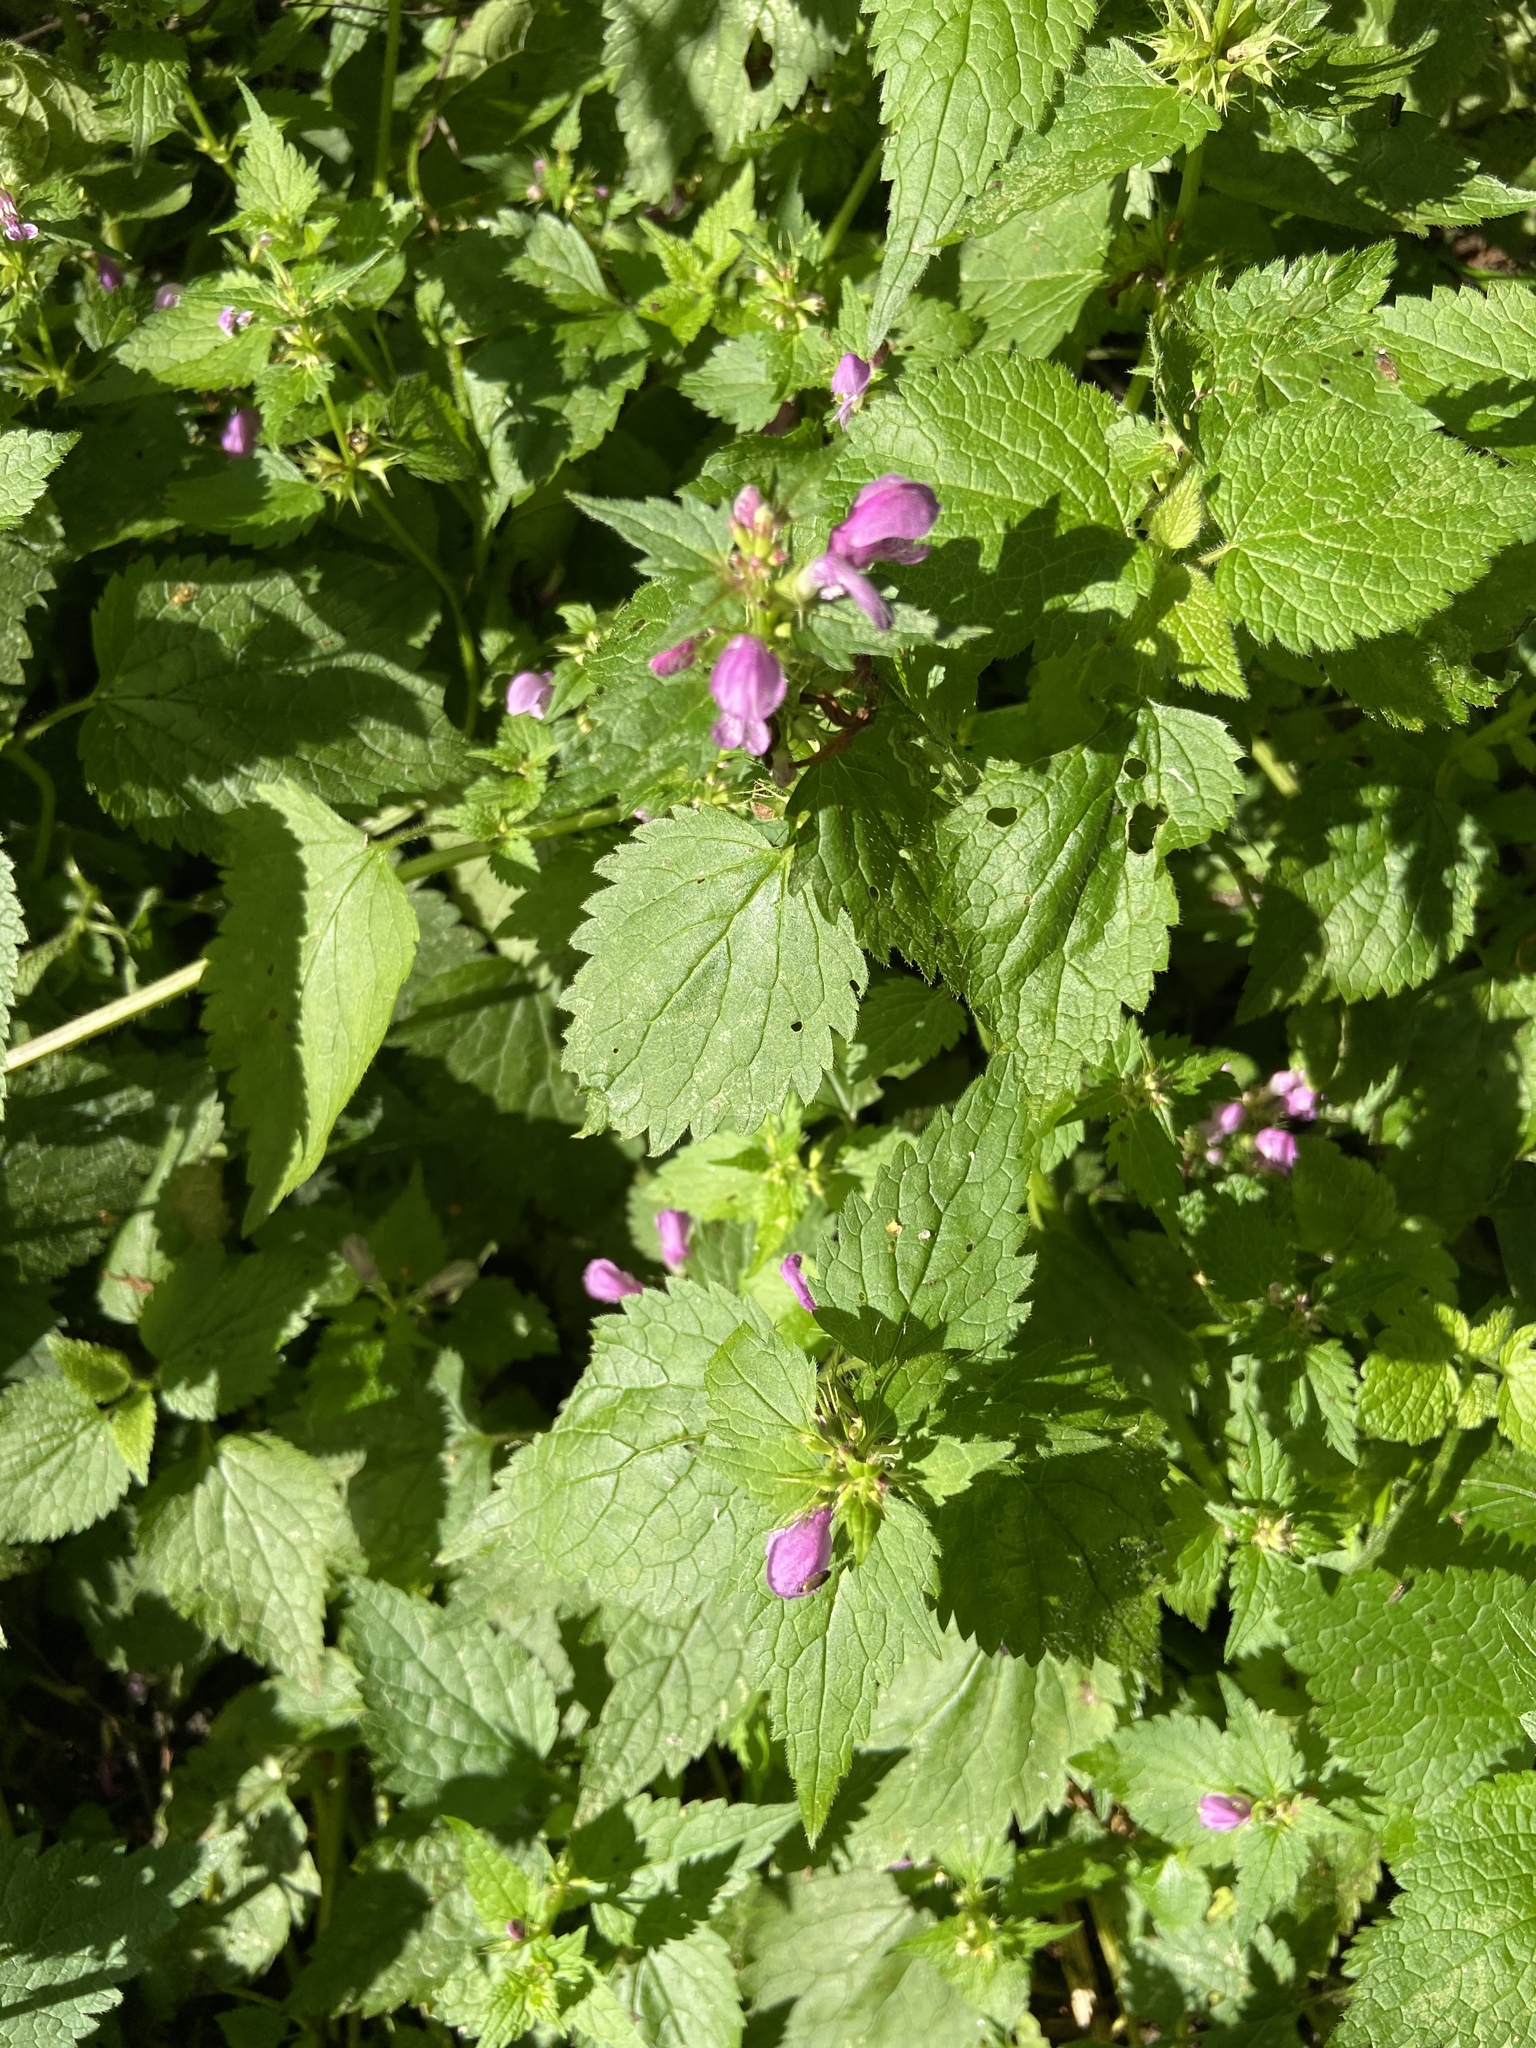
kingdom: Plantae
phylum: Tracheophyta
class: Magnoliopsida
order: Lamiales
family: Lamiaceae
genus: Lamium
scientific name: Lamium maculatum
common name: Spotted dead-nettle
